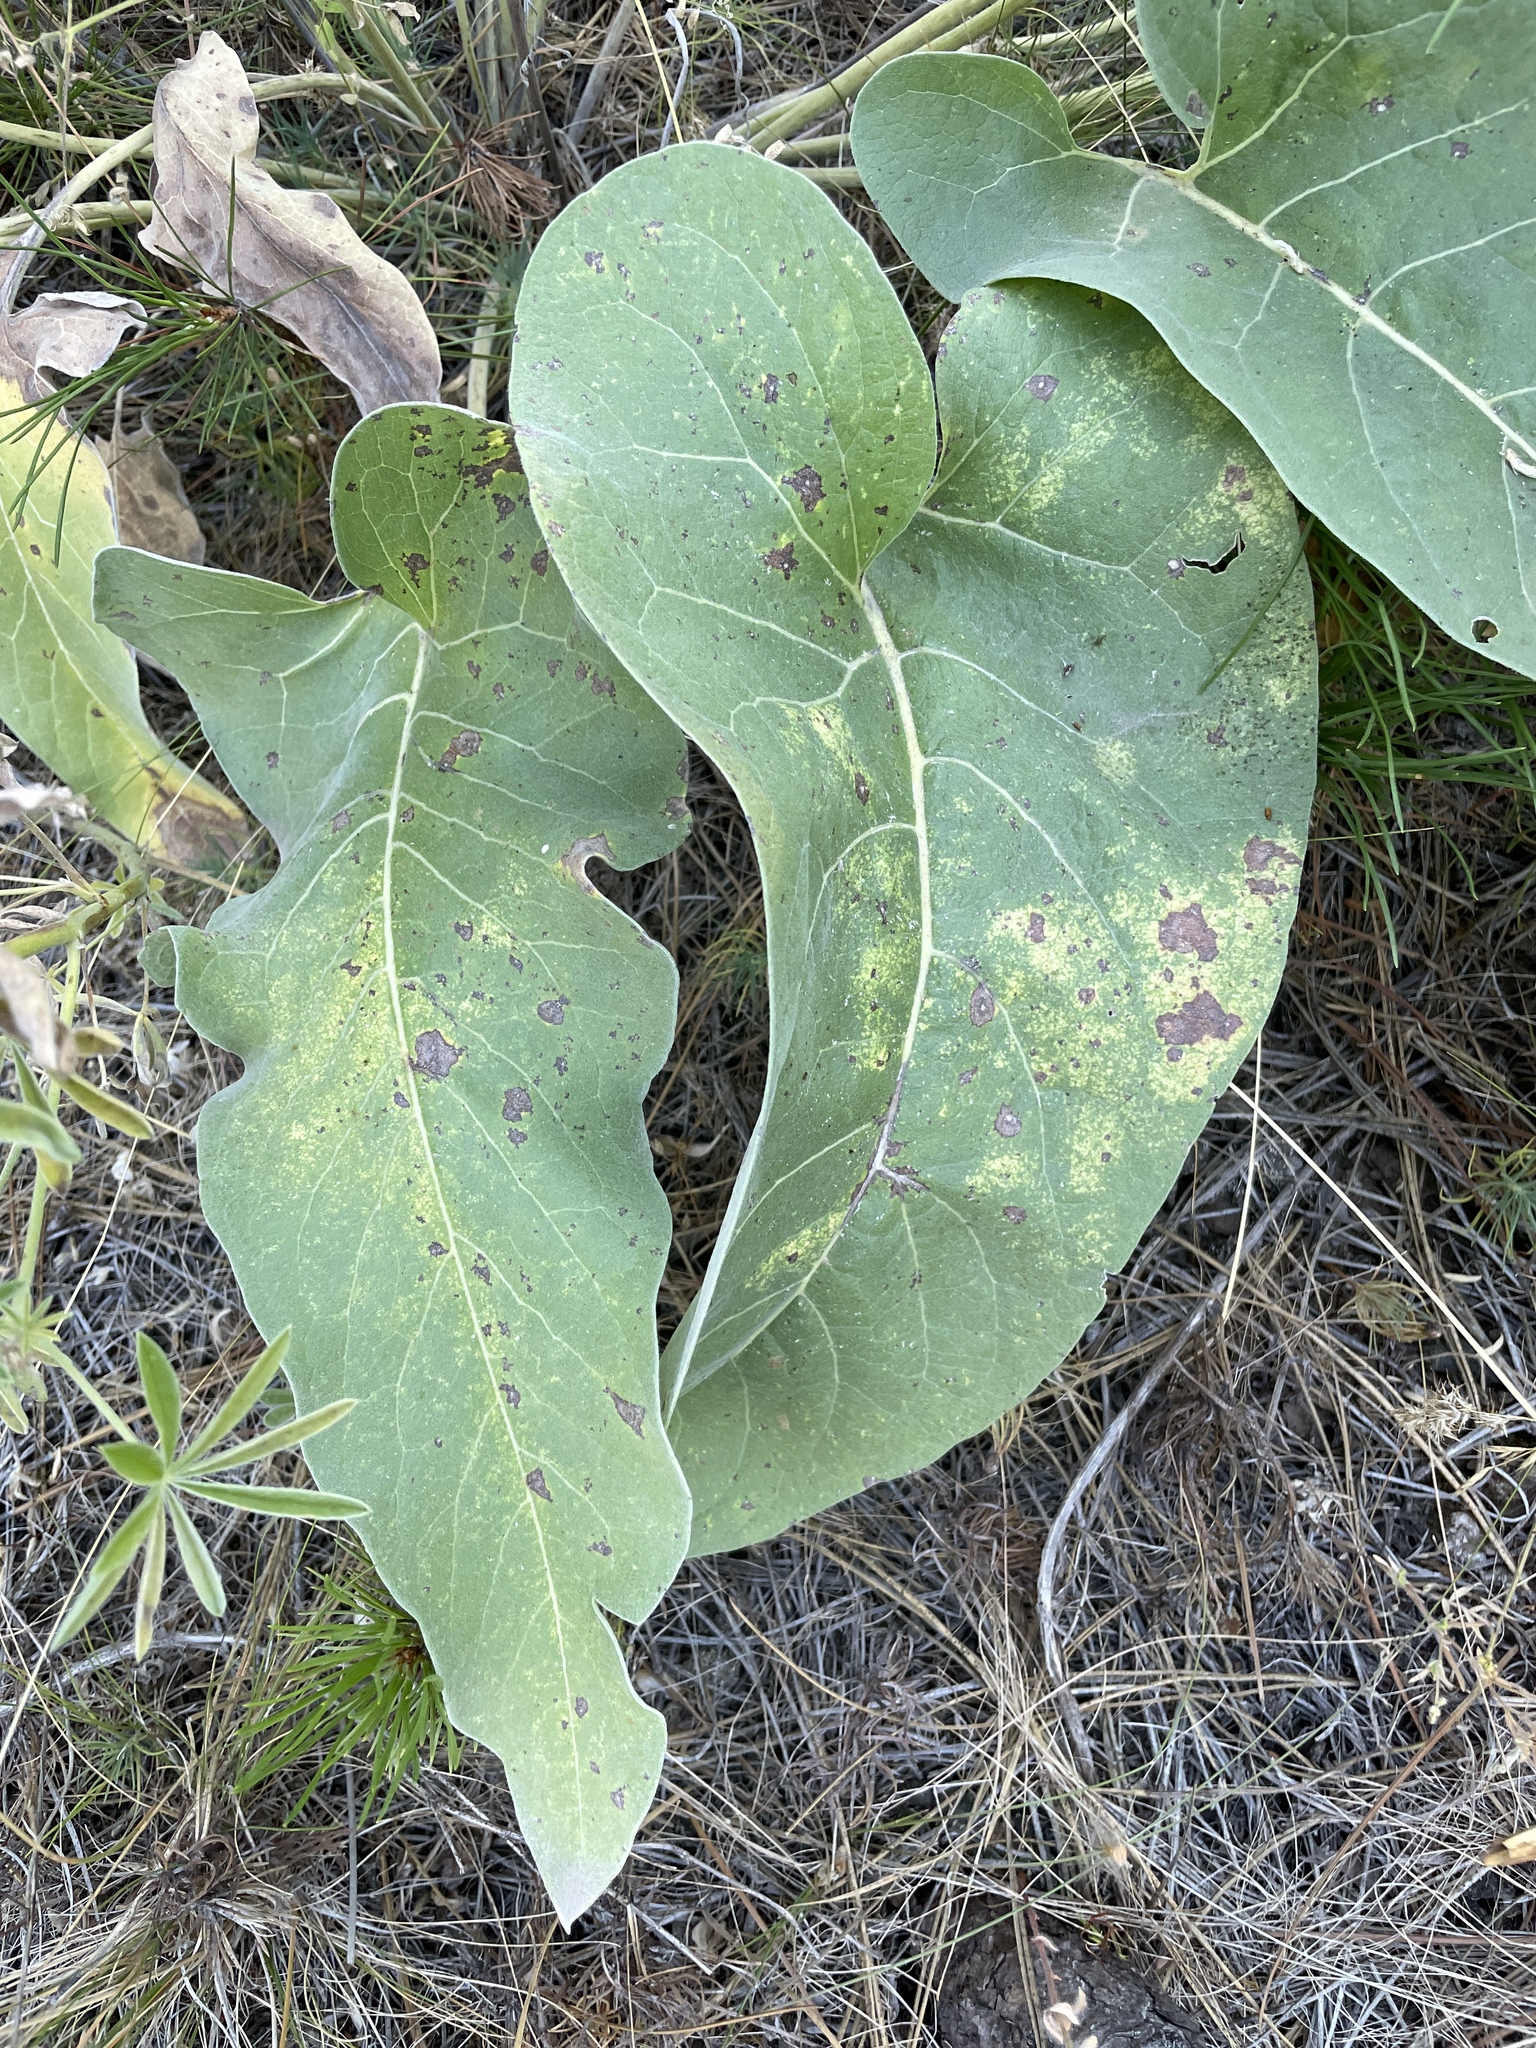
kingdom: Plantae
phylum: Tracheophyta
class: Magnoliopsida
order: Asterales
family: Asteraceae
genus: Wyethia
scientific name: Wyethia sagittata
